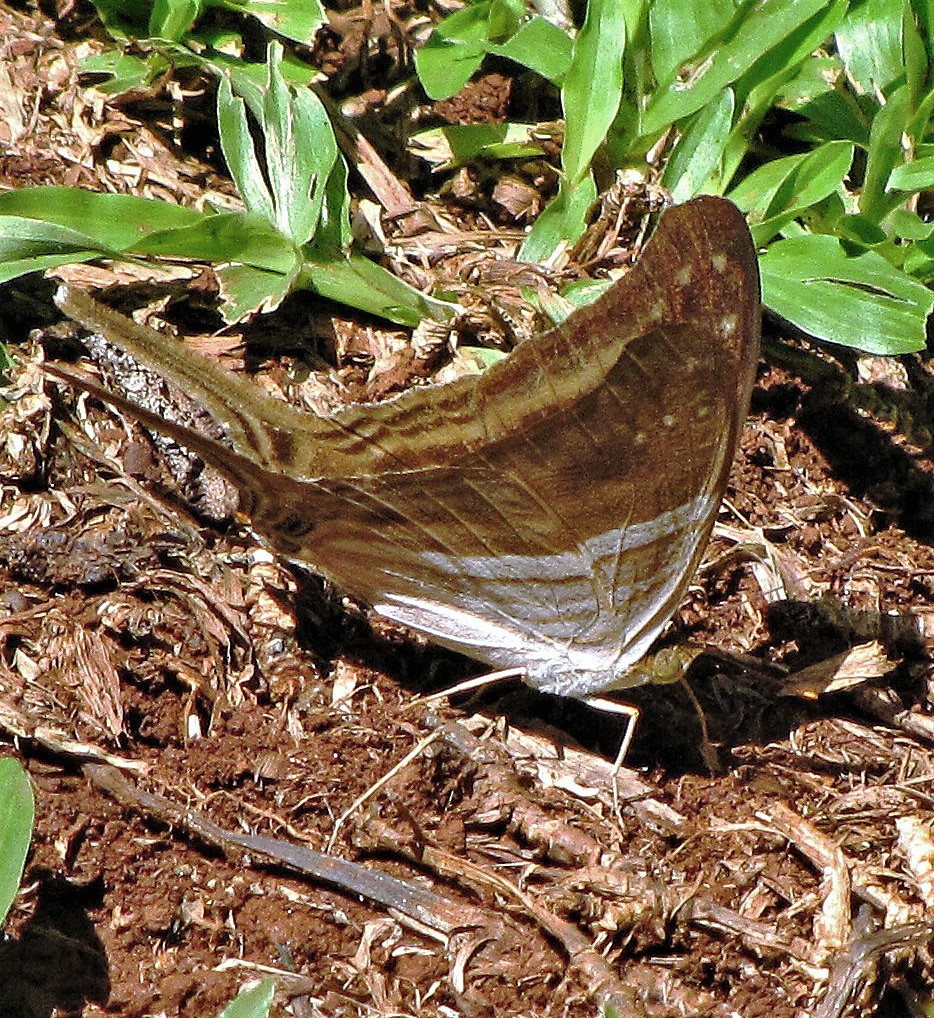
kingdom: Animalia
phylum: Arthropoda
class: Insecta
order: Lepidoptera
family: Nymphalidae
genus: Marpesia
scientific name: Marpesia chiron
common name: Many-banded daggerwing
